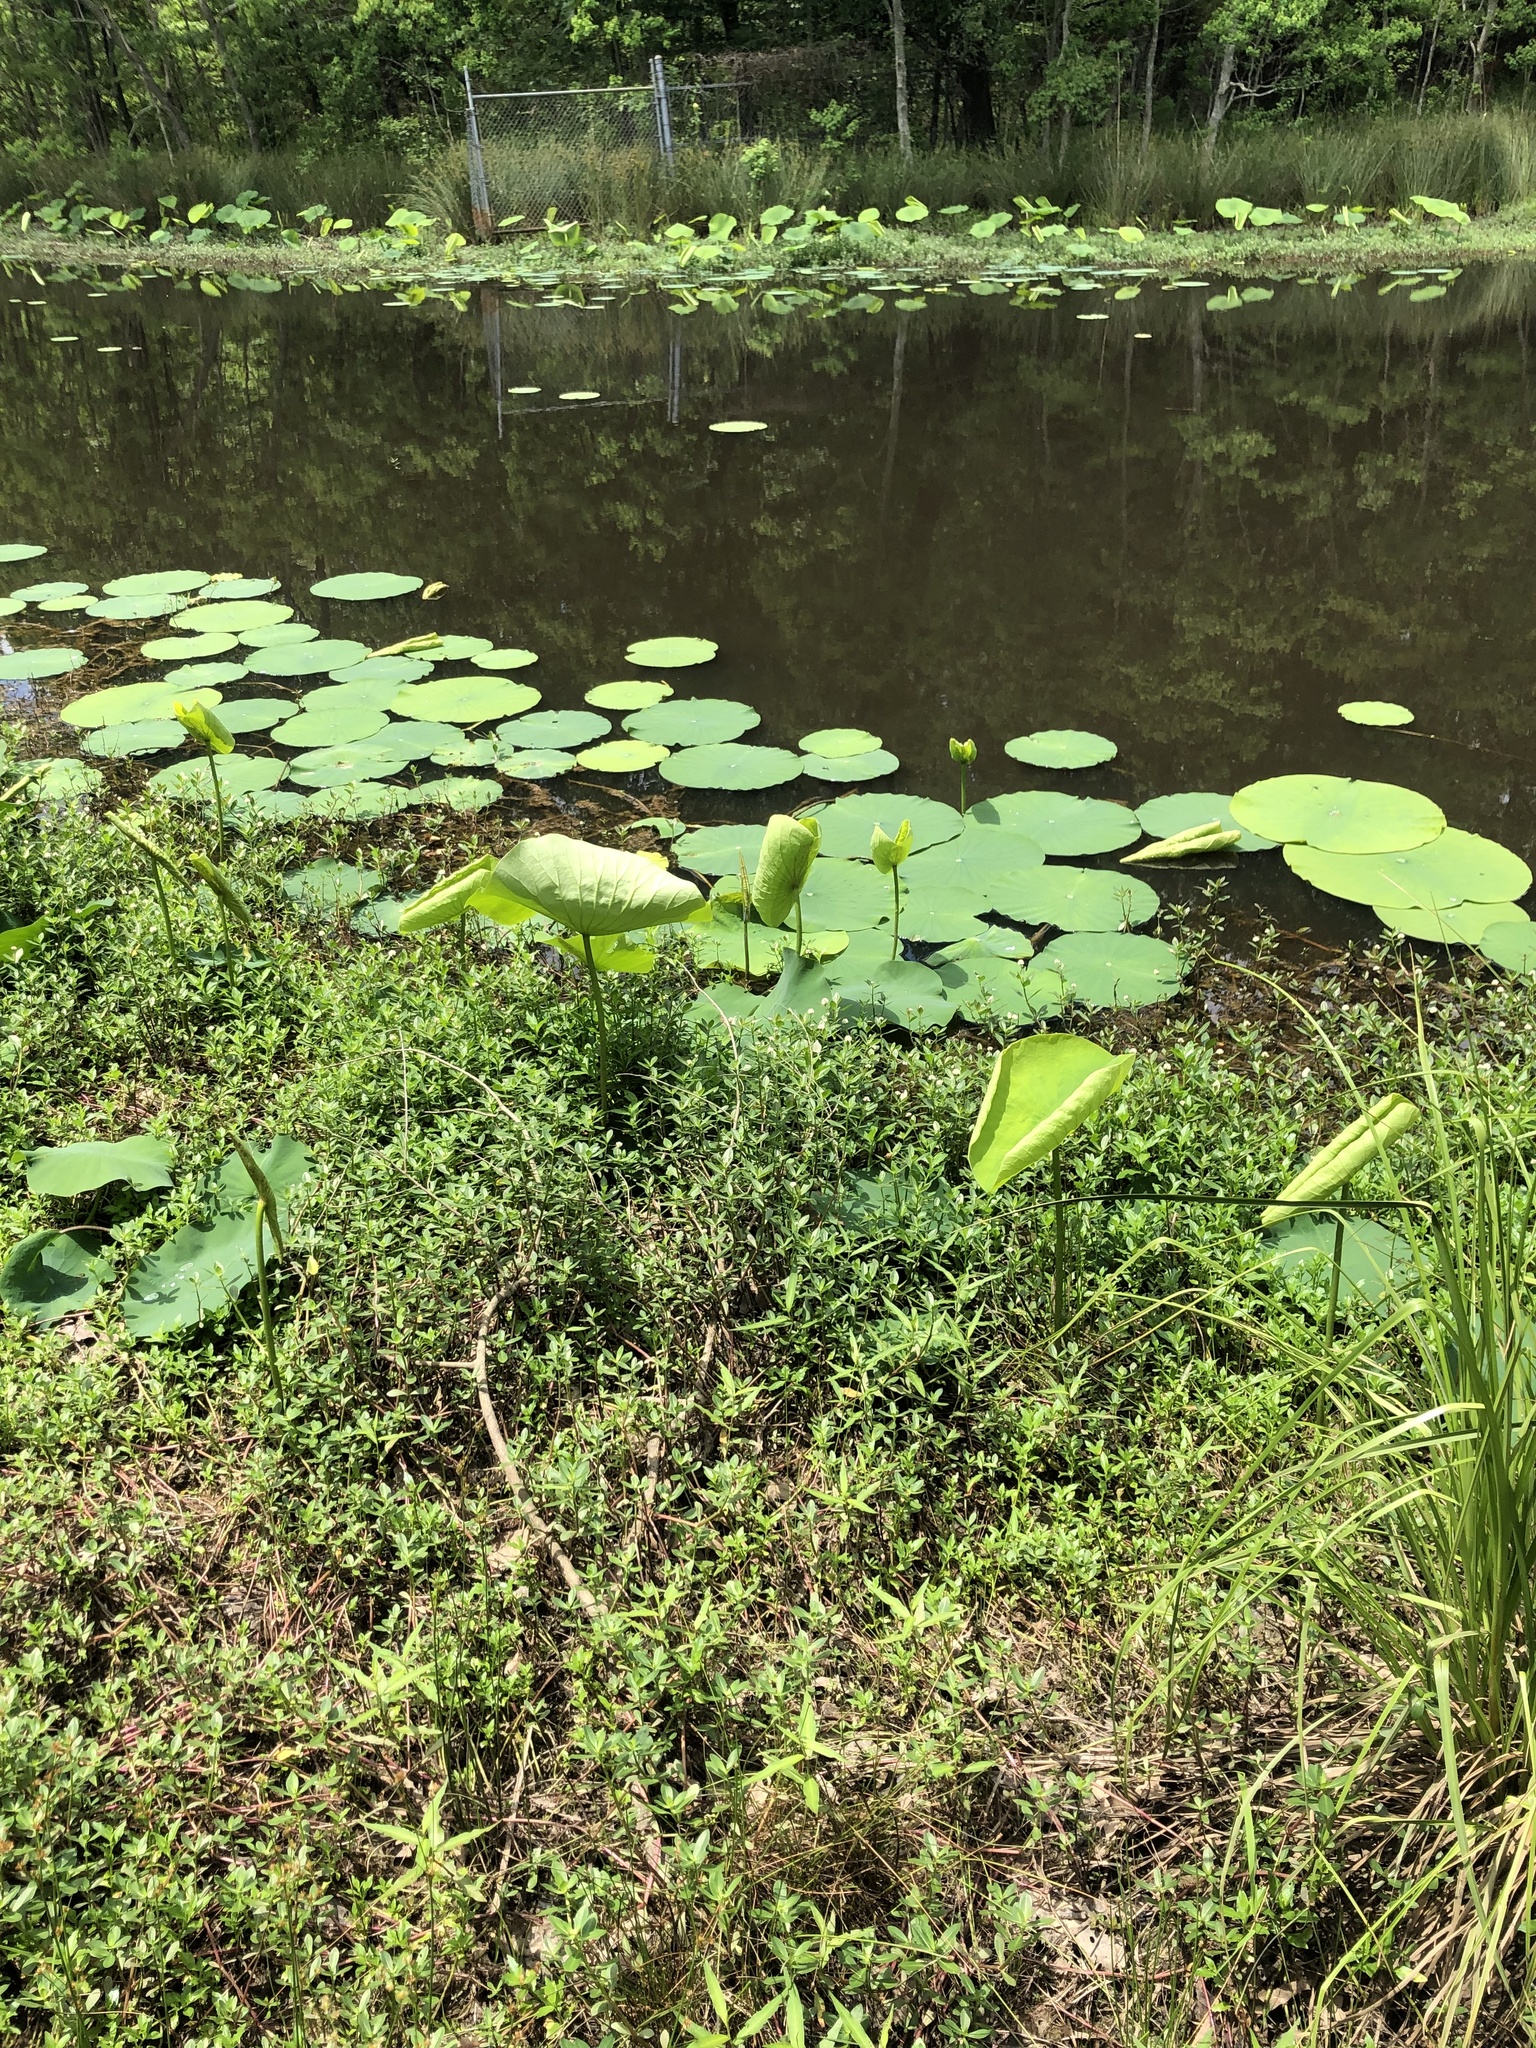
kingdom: Plantae
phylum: Tracheophyta
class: Magnoliopsida
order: Proteales
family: Nelumbonaceae
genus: Nelumbo
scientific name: Nelumbo lutea
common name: American lotus
